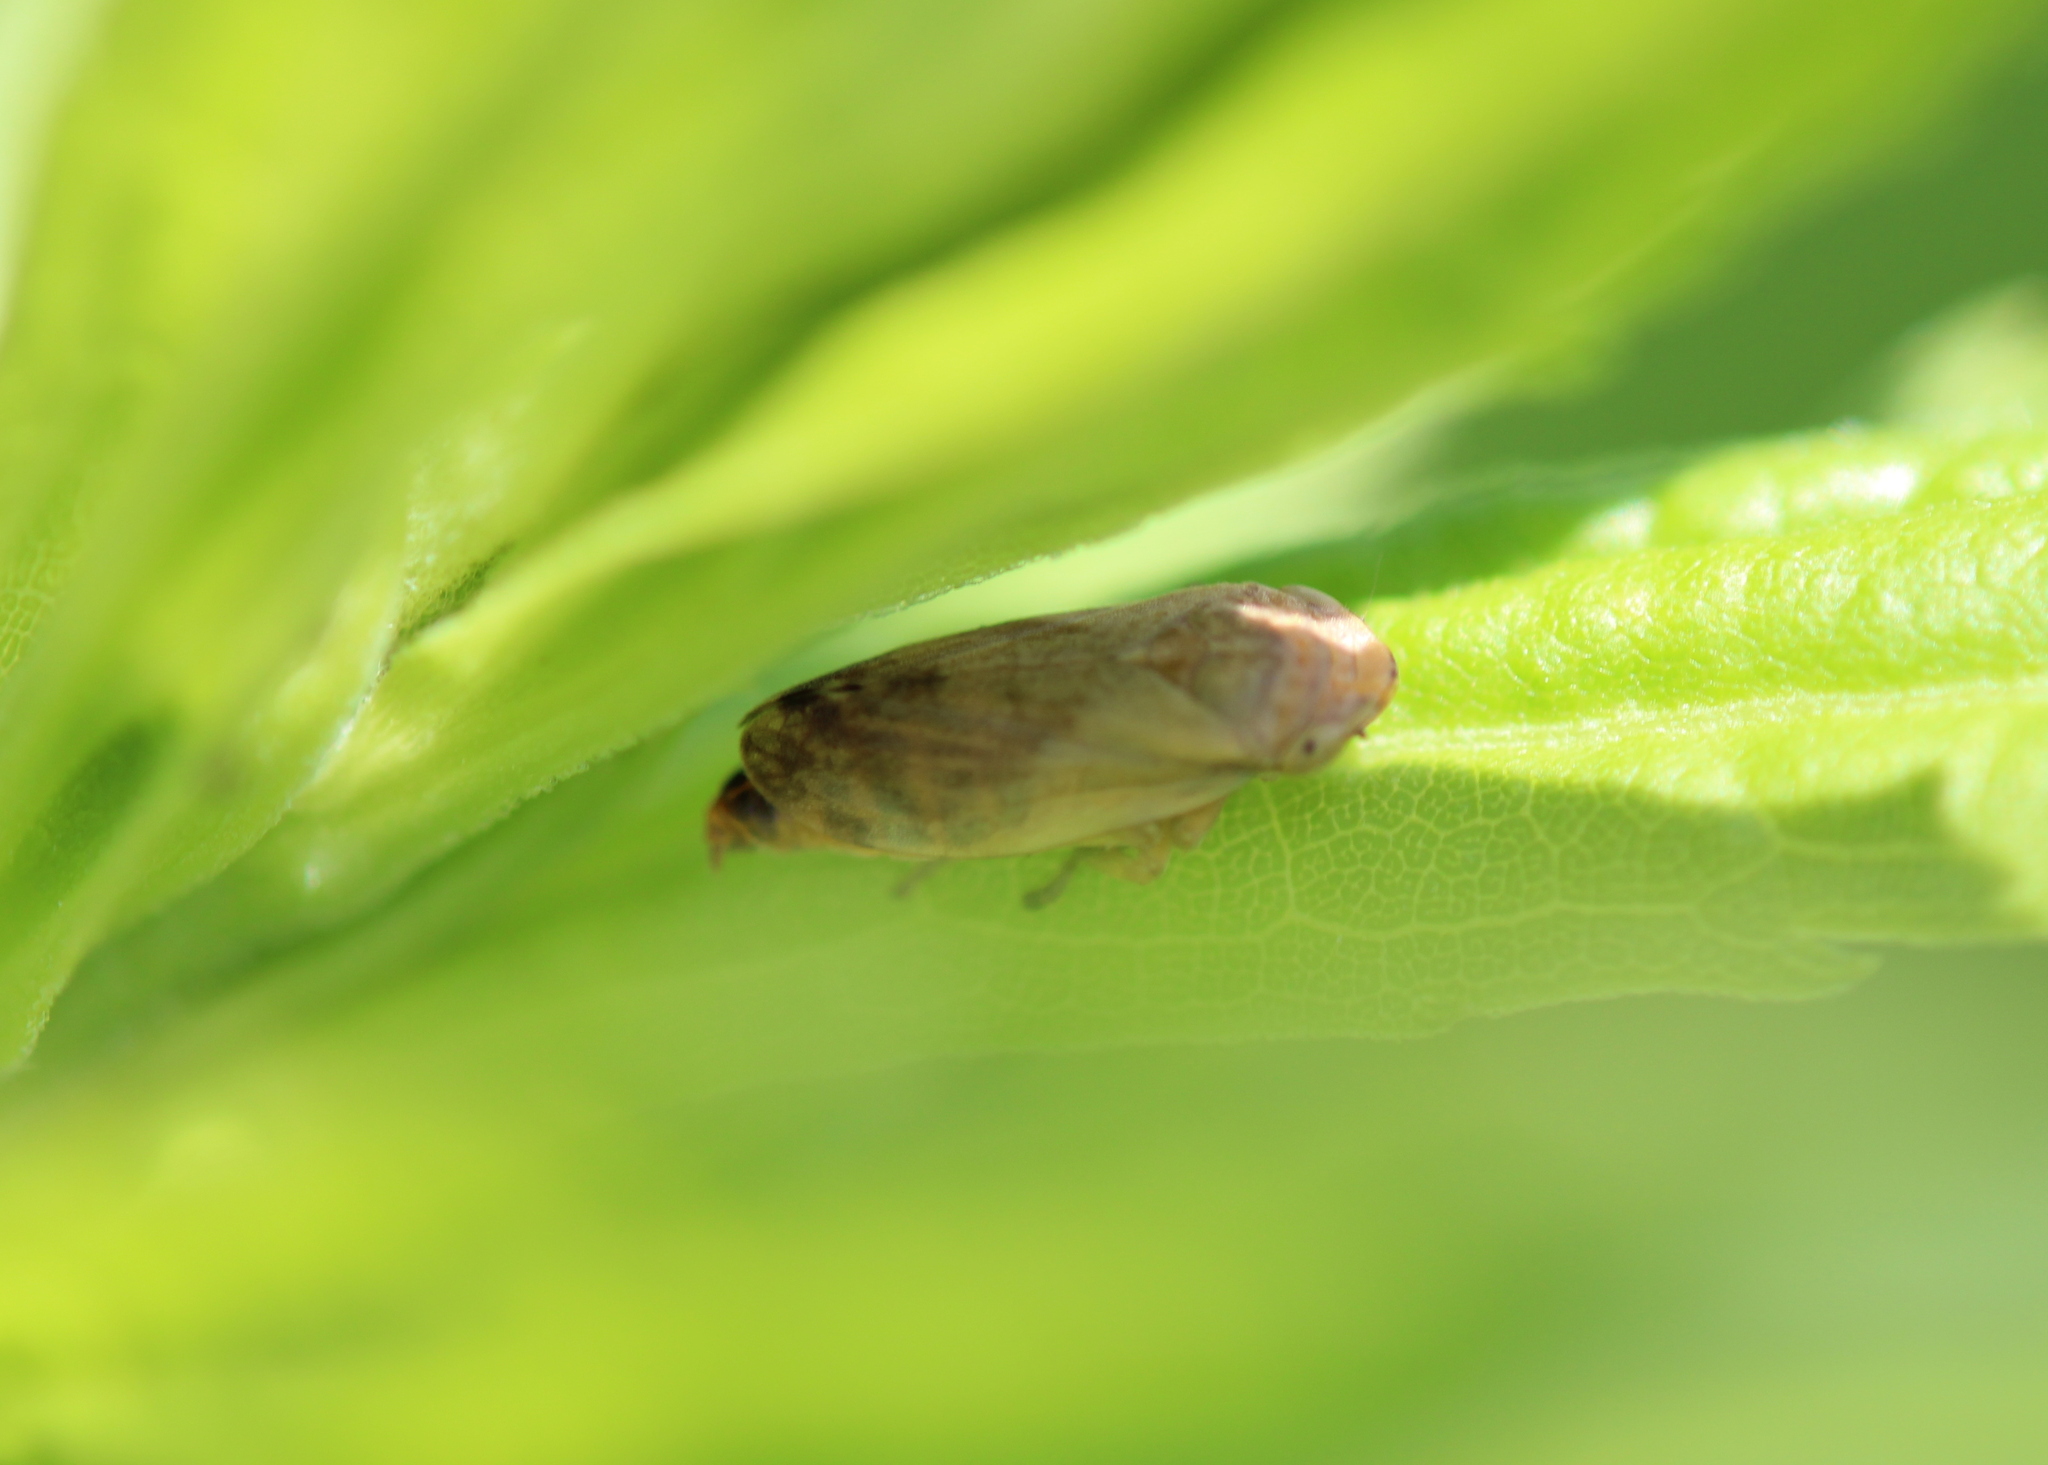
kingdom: Animalia
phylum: Arthropoda
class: Insecta
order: Hemiptera
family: Aphrophoridae
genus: Philaenus
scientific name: Philaenus spumarius
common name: Meadow spittlebug
